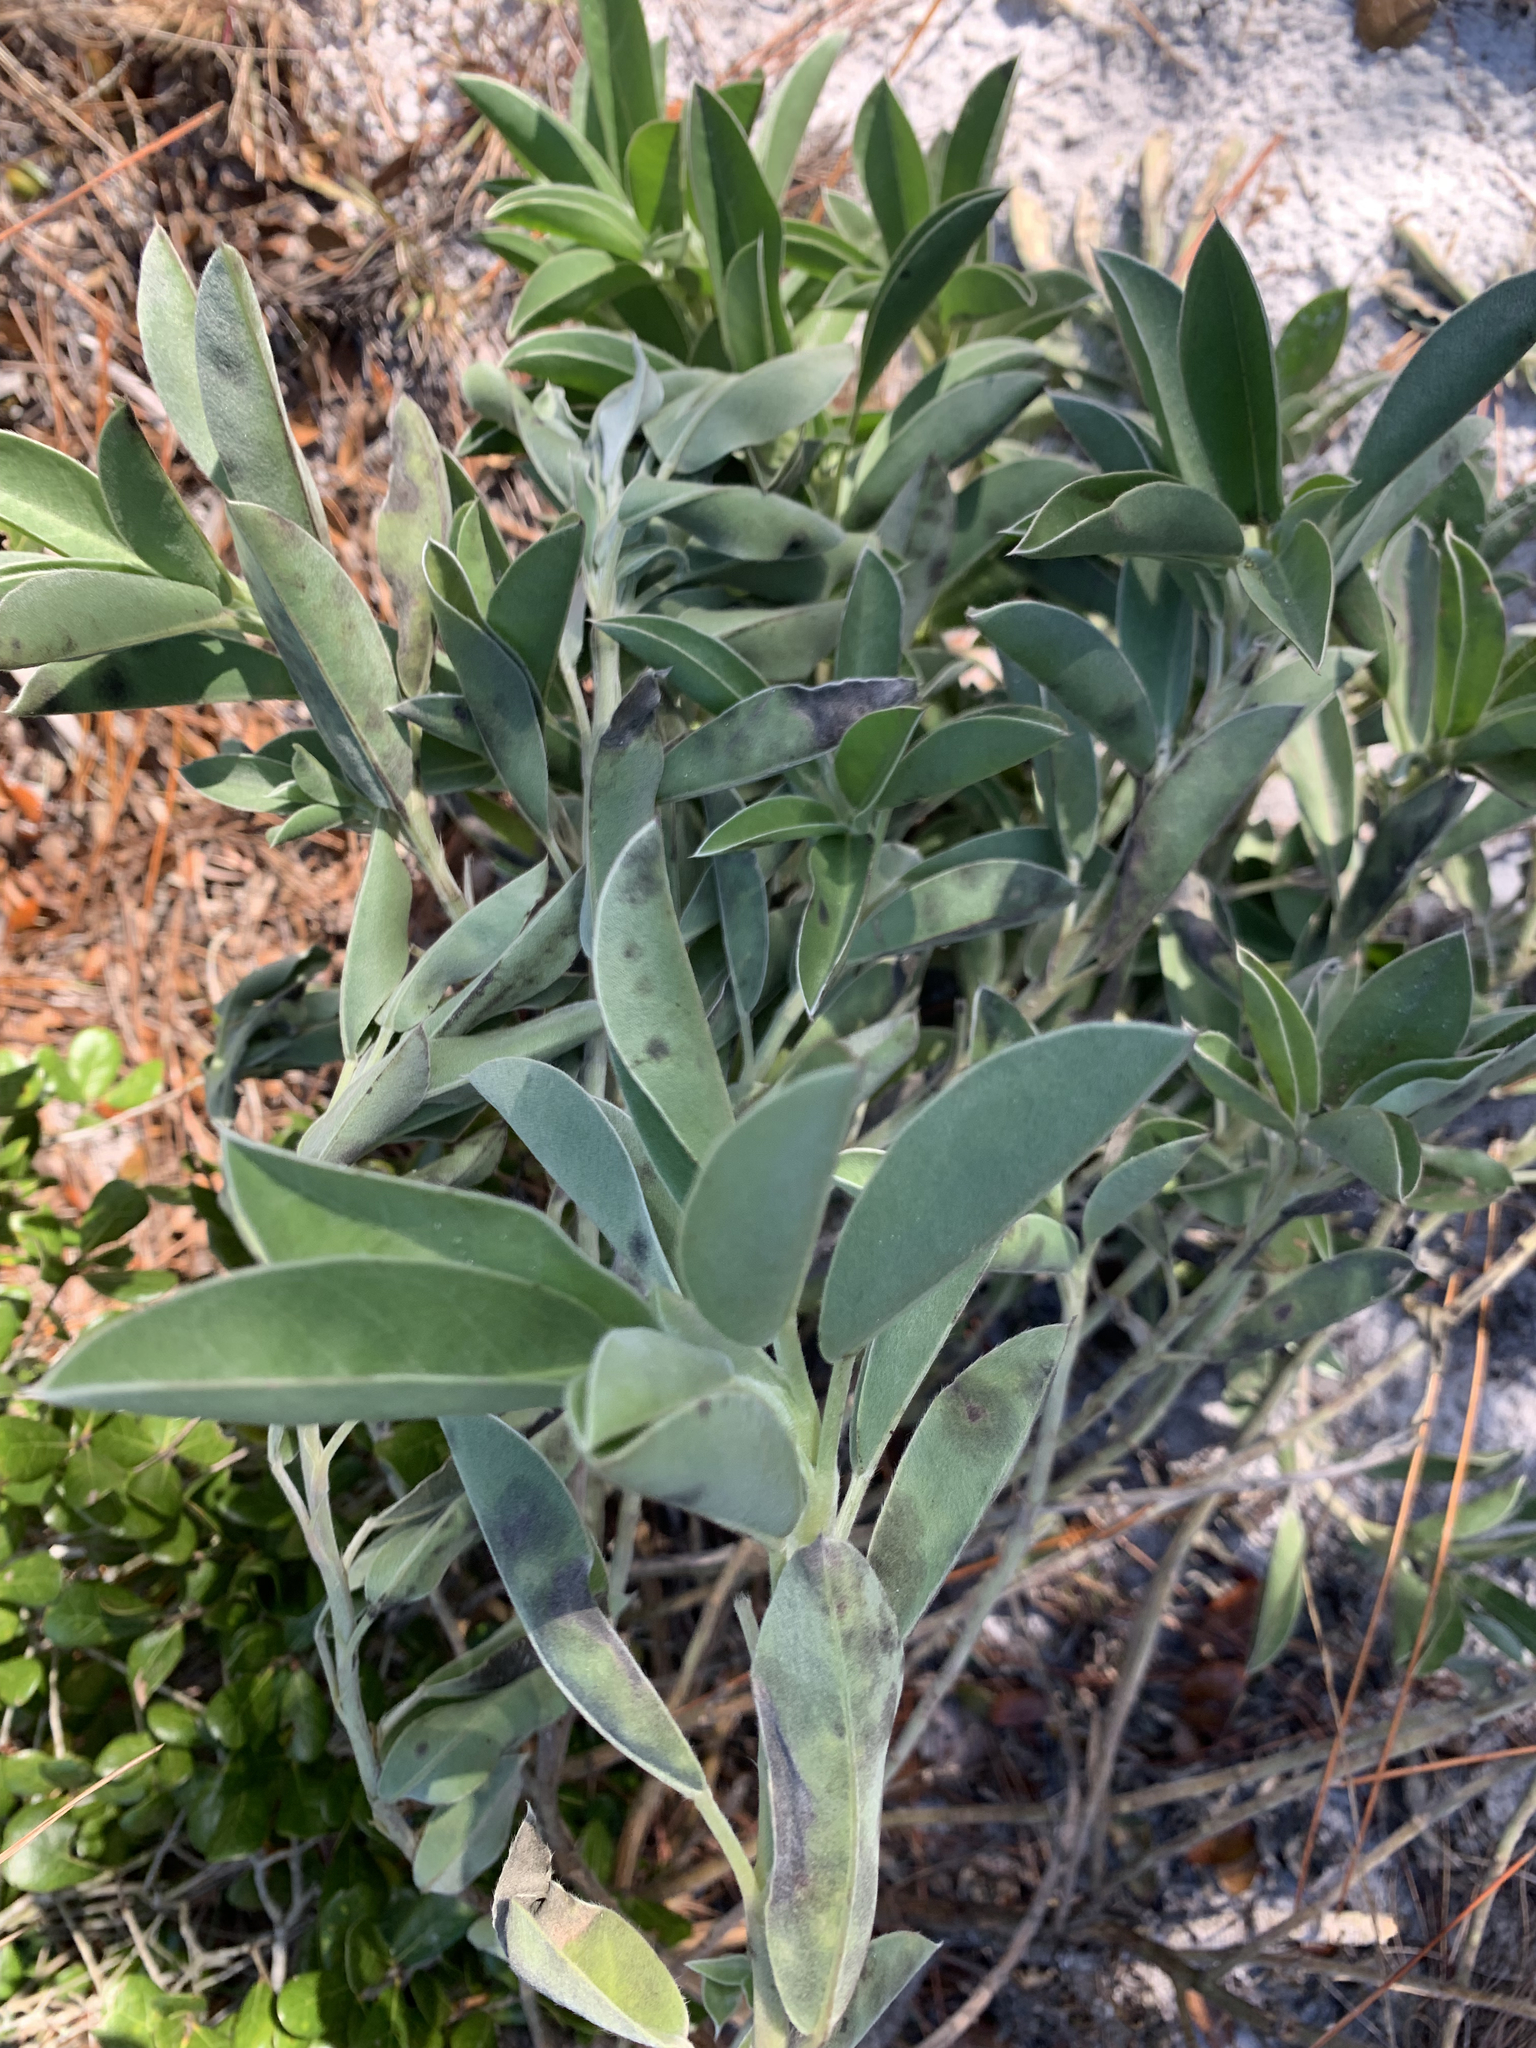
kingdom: Plantae
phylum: Tracheophyta
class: Magnoliopsida
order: Fabales
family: Fabaceae
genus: Lupinus
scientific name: Lupinus
